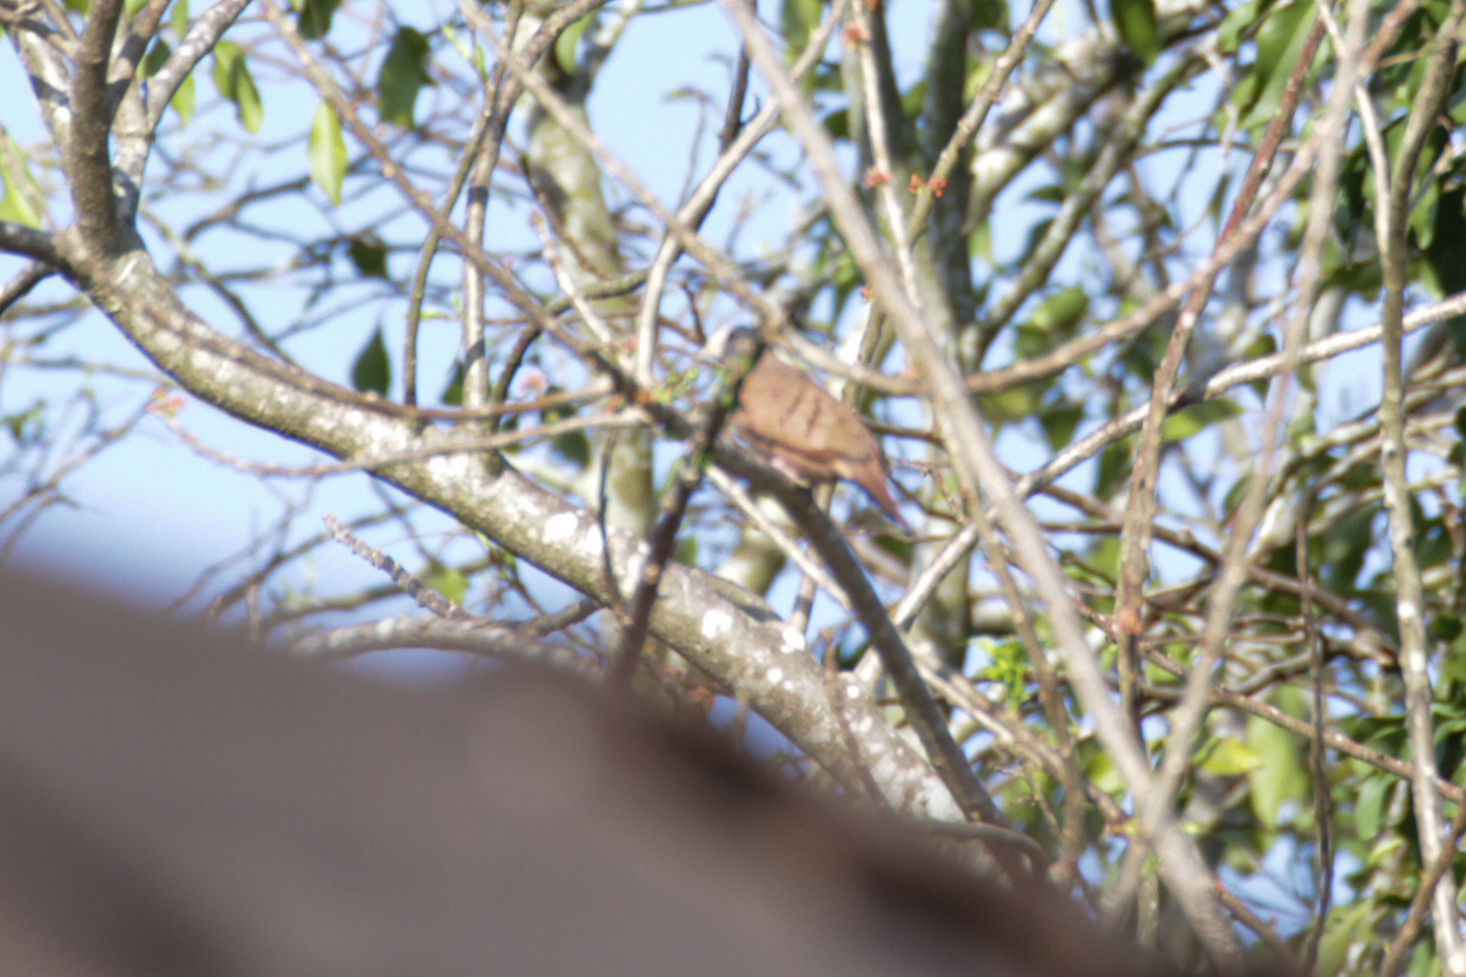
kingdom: Animalia
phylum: Chordata
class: Aves
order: Columbiformes
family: Columbidae
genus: Columbina
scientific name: Columbina talpacoti
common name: Ruddy ground dove
